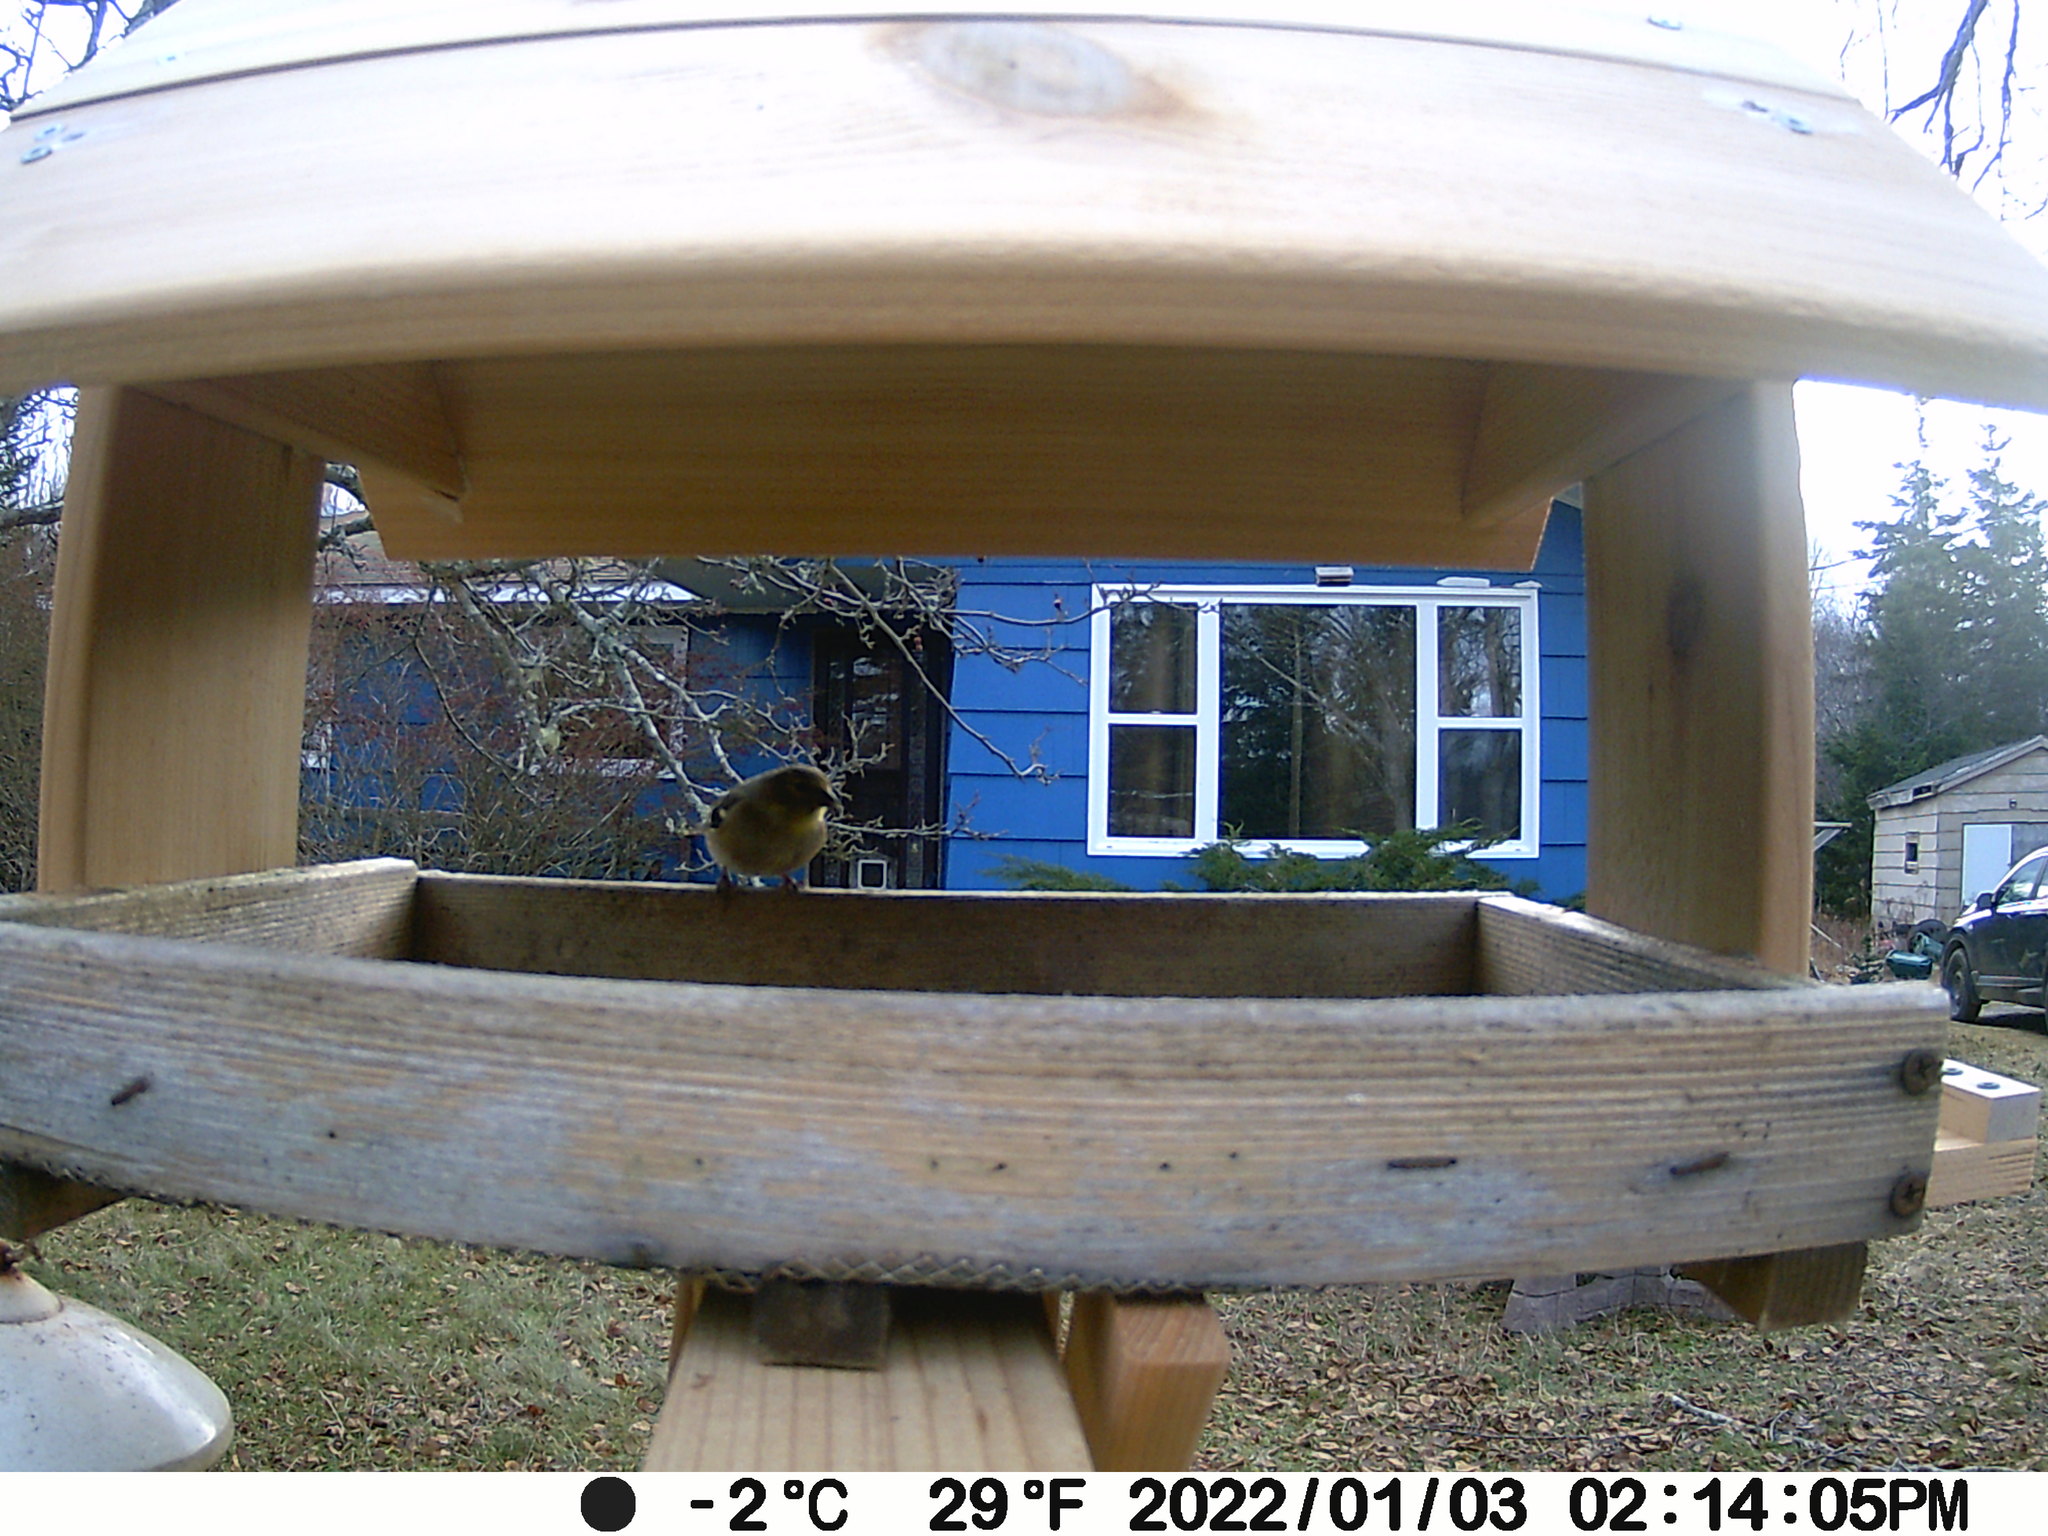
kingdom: Animalia
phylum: Chordata
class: Aves
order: Passeriformes
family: Fringillidae
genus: Spinus
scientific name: Spinus tristis
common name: American goldfinch
